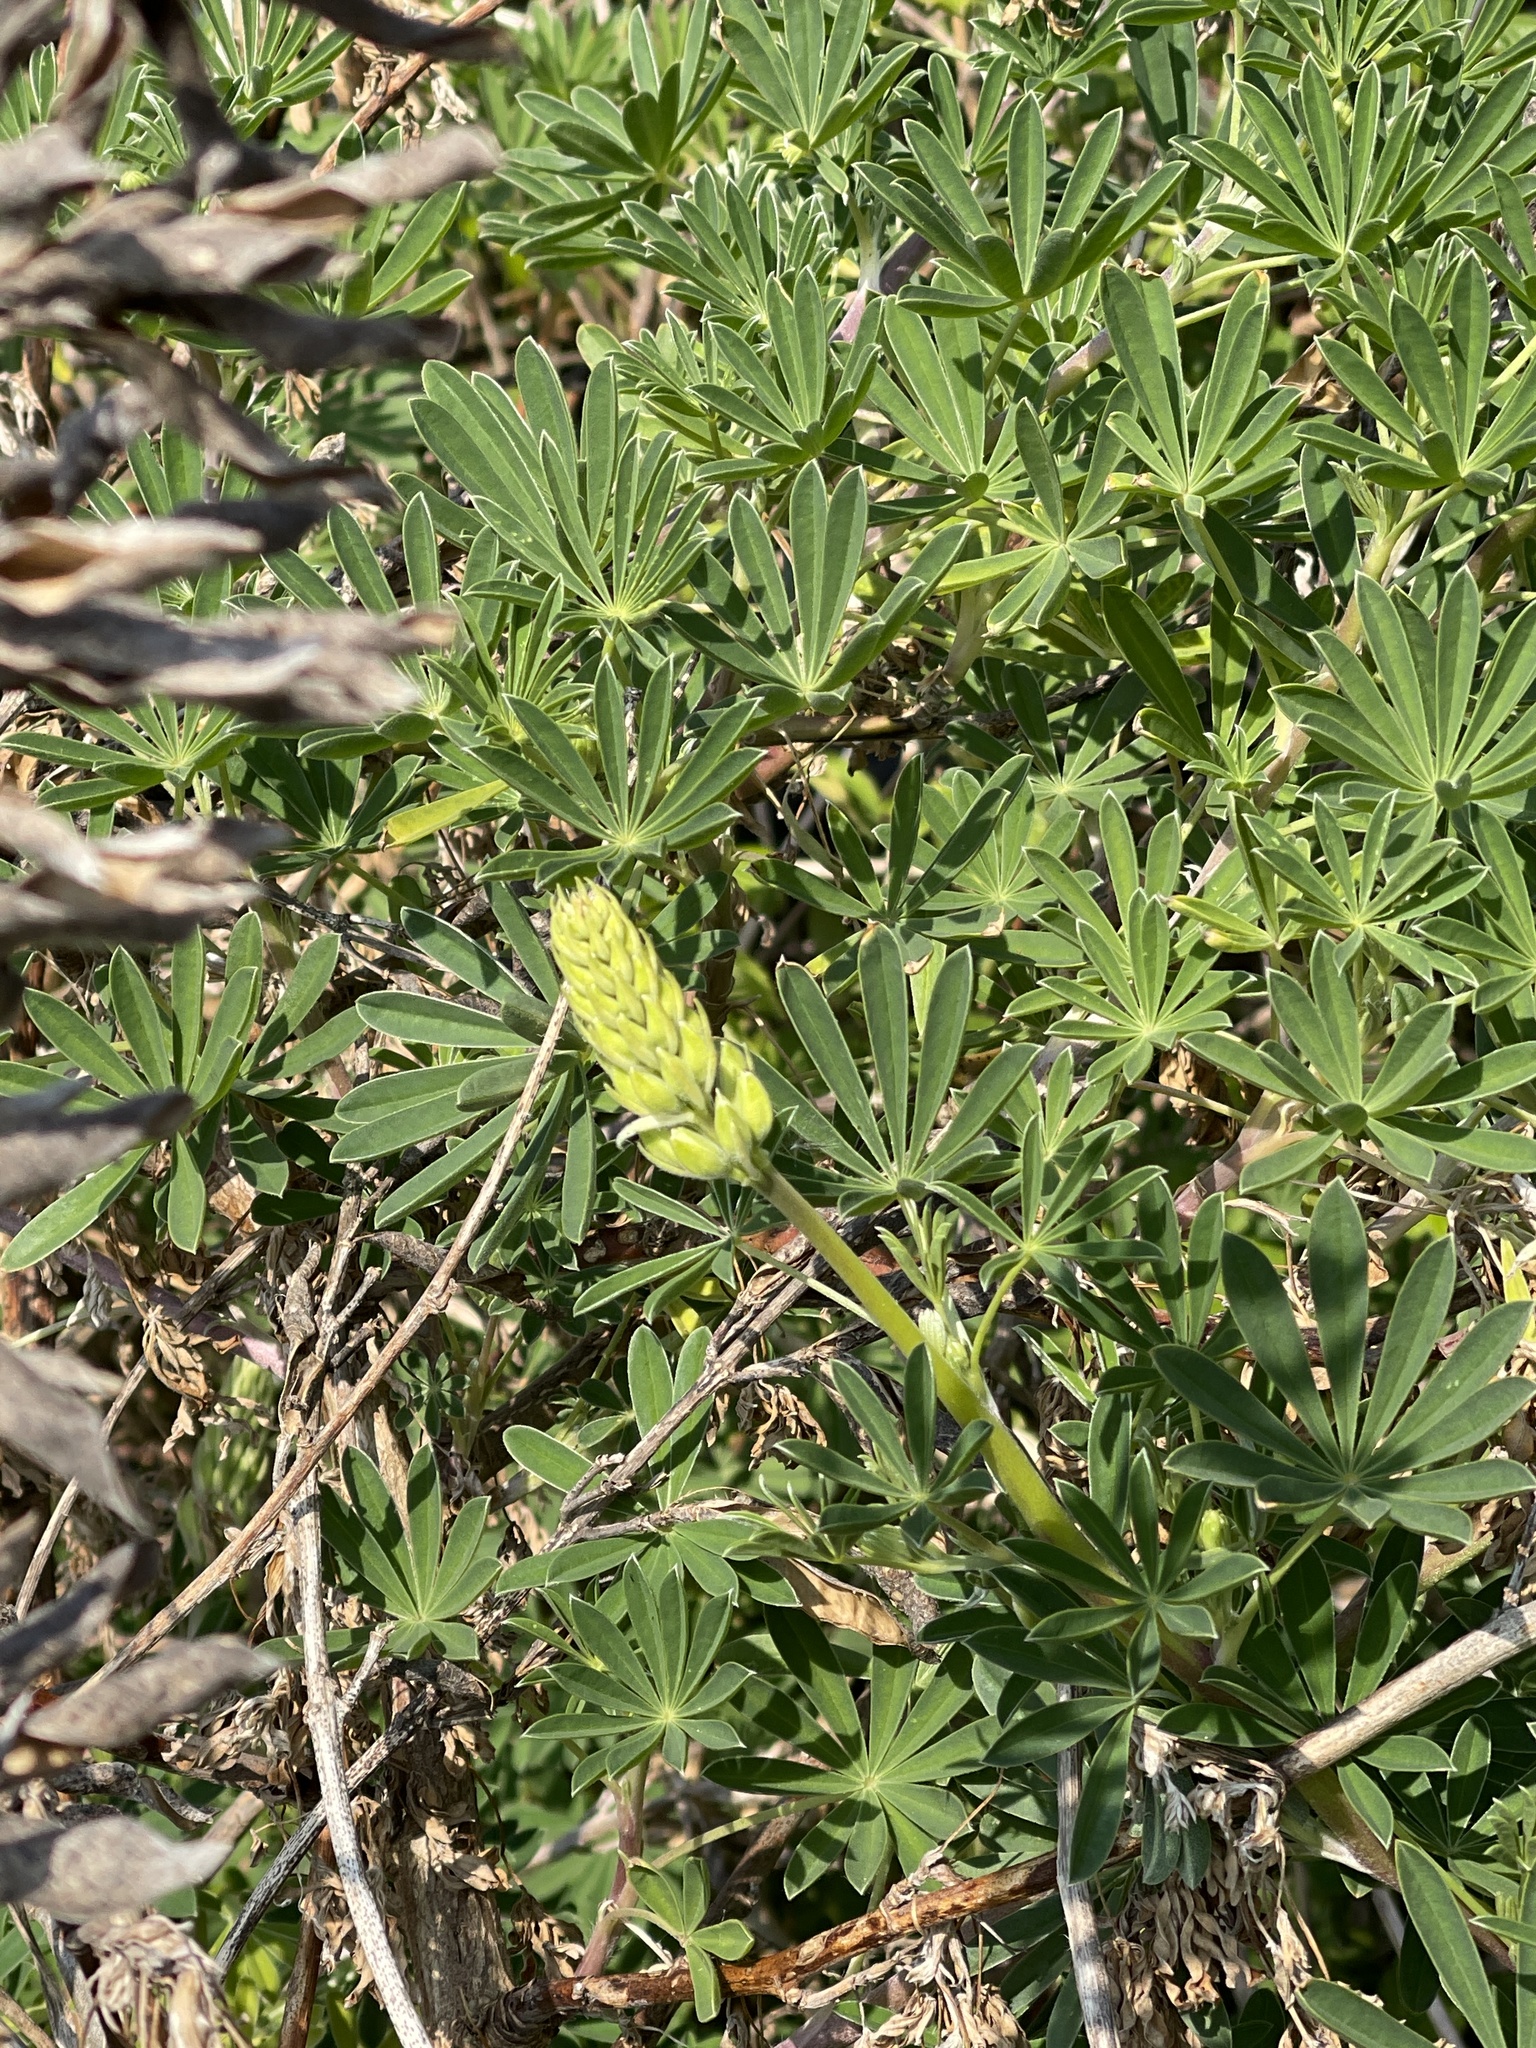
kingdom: Plantae
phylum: Tracheophyta
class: Magnoliopsida
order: Fabales
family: Fabaceae
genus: Lupinus
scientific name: Lupinus arboreus
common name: Yellow bush lupine
